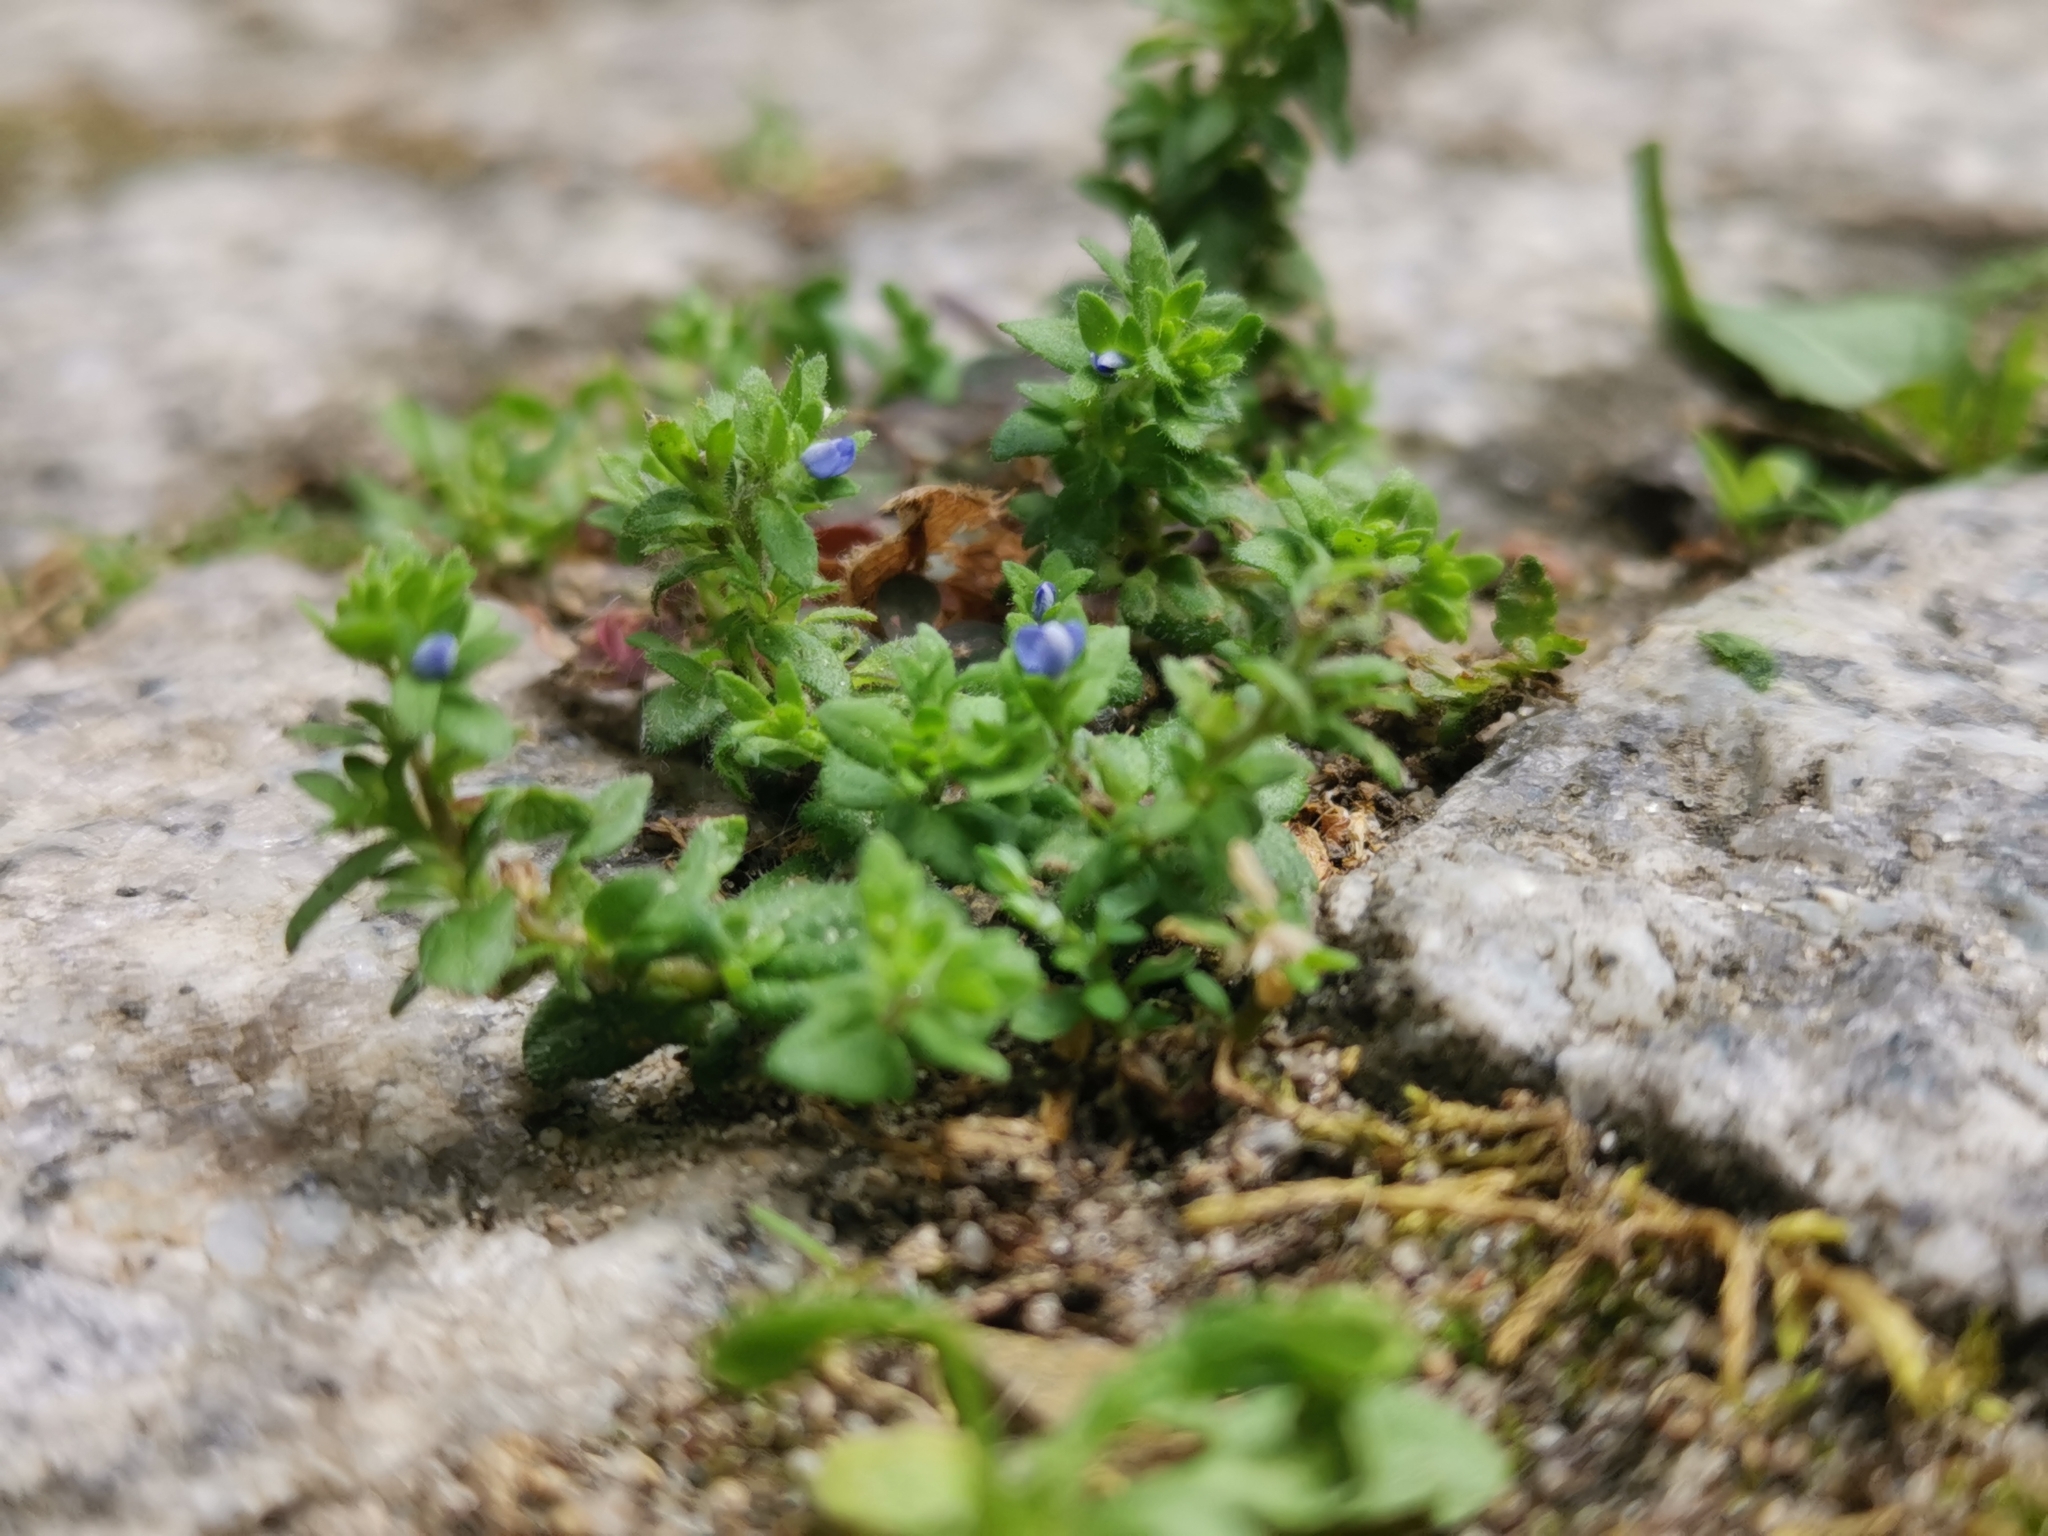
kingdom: Plantae
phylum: Tracheophyta
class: Magnoliopsida
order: Lamiales
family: Plantaginaceae
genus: Veronica
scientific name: Veronica arvensis
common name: Corn speedwell
